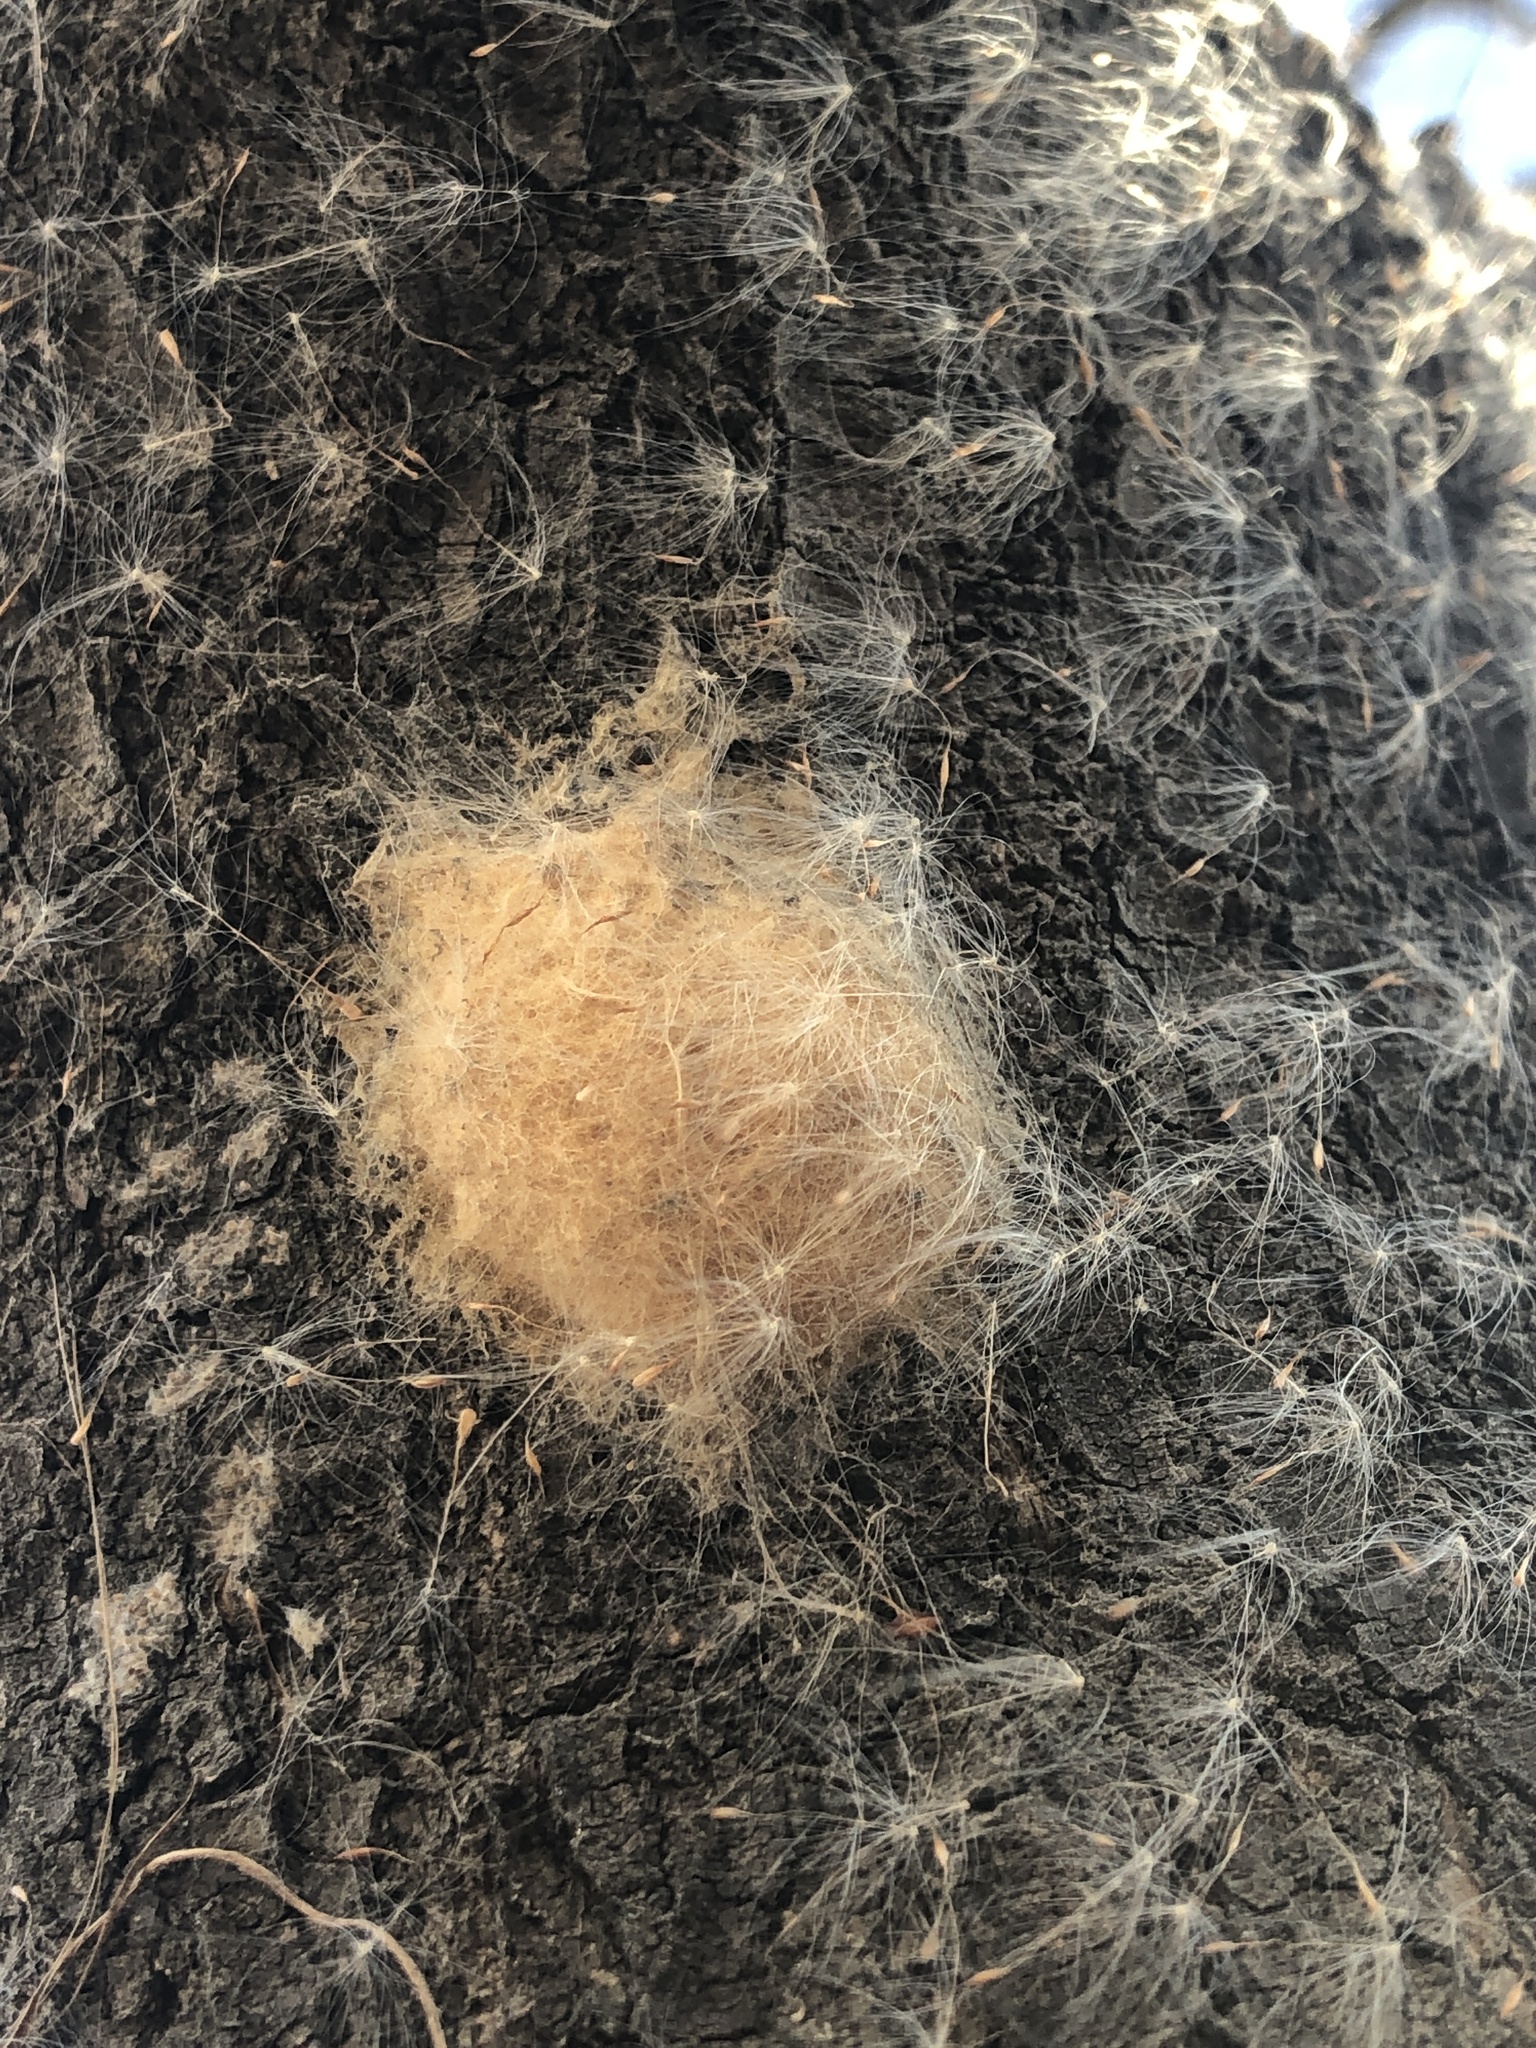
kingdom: Animalia
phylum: Arthropoda
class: Insecta
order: Lepidoptera
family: Erebidae
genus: Lymantria
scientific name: Lymantria dispar
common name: Gypsy moth
